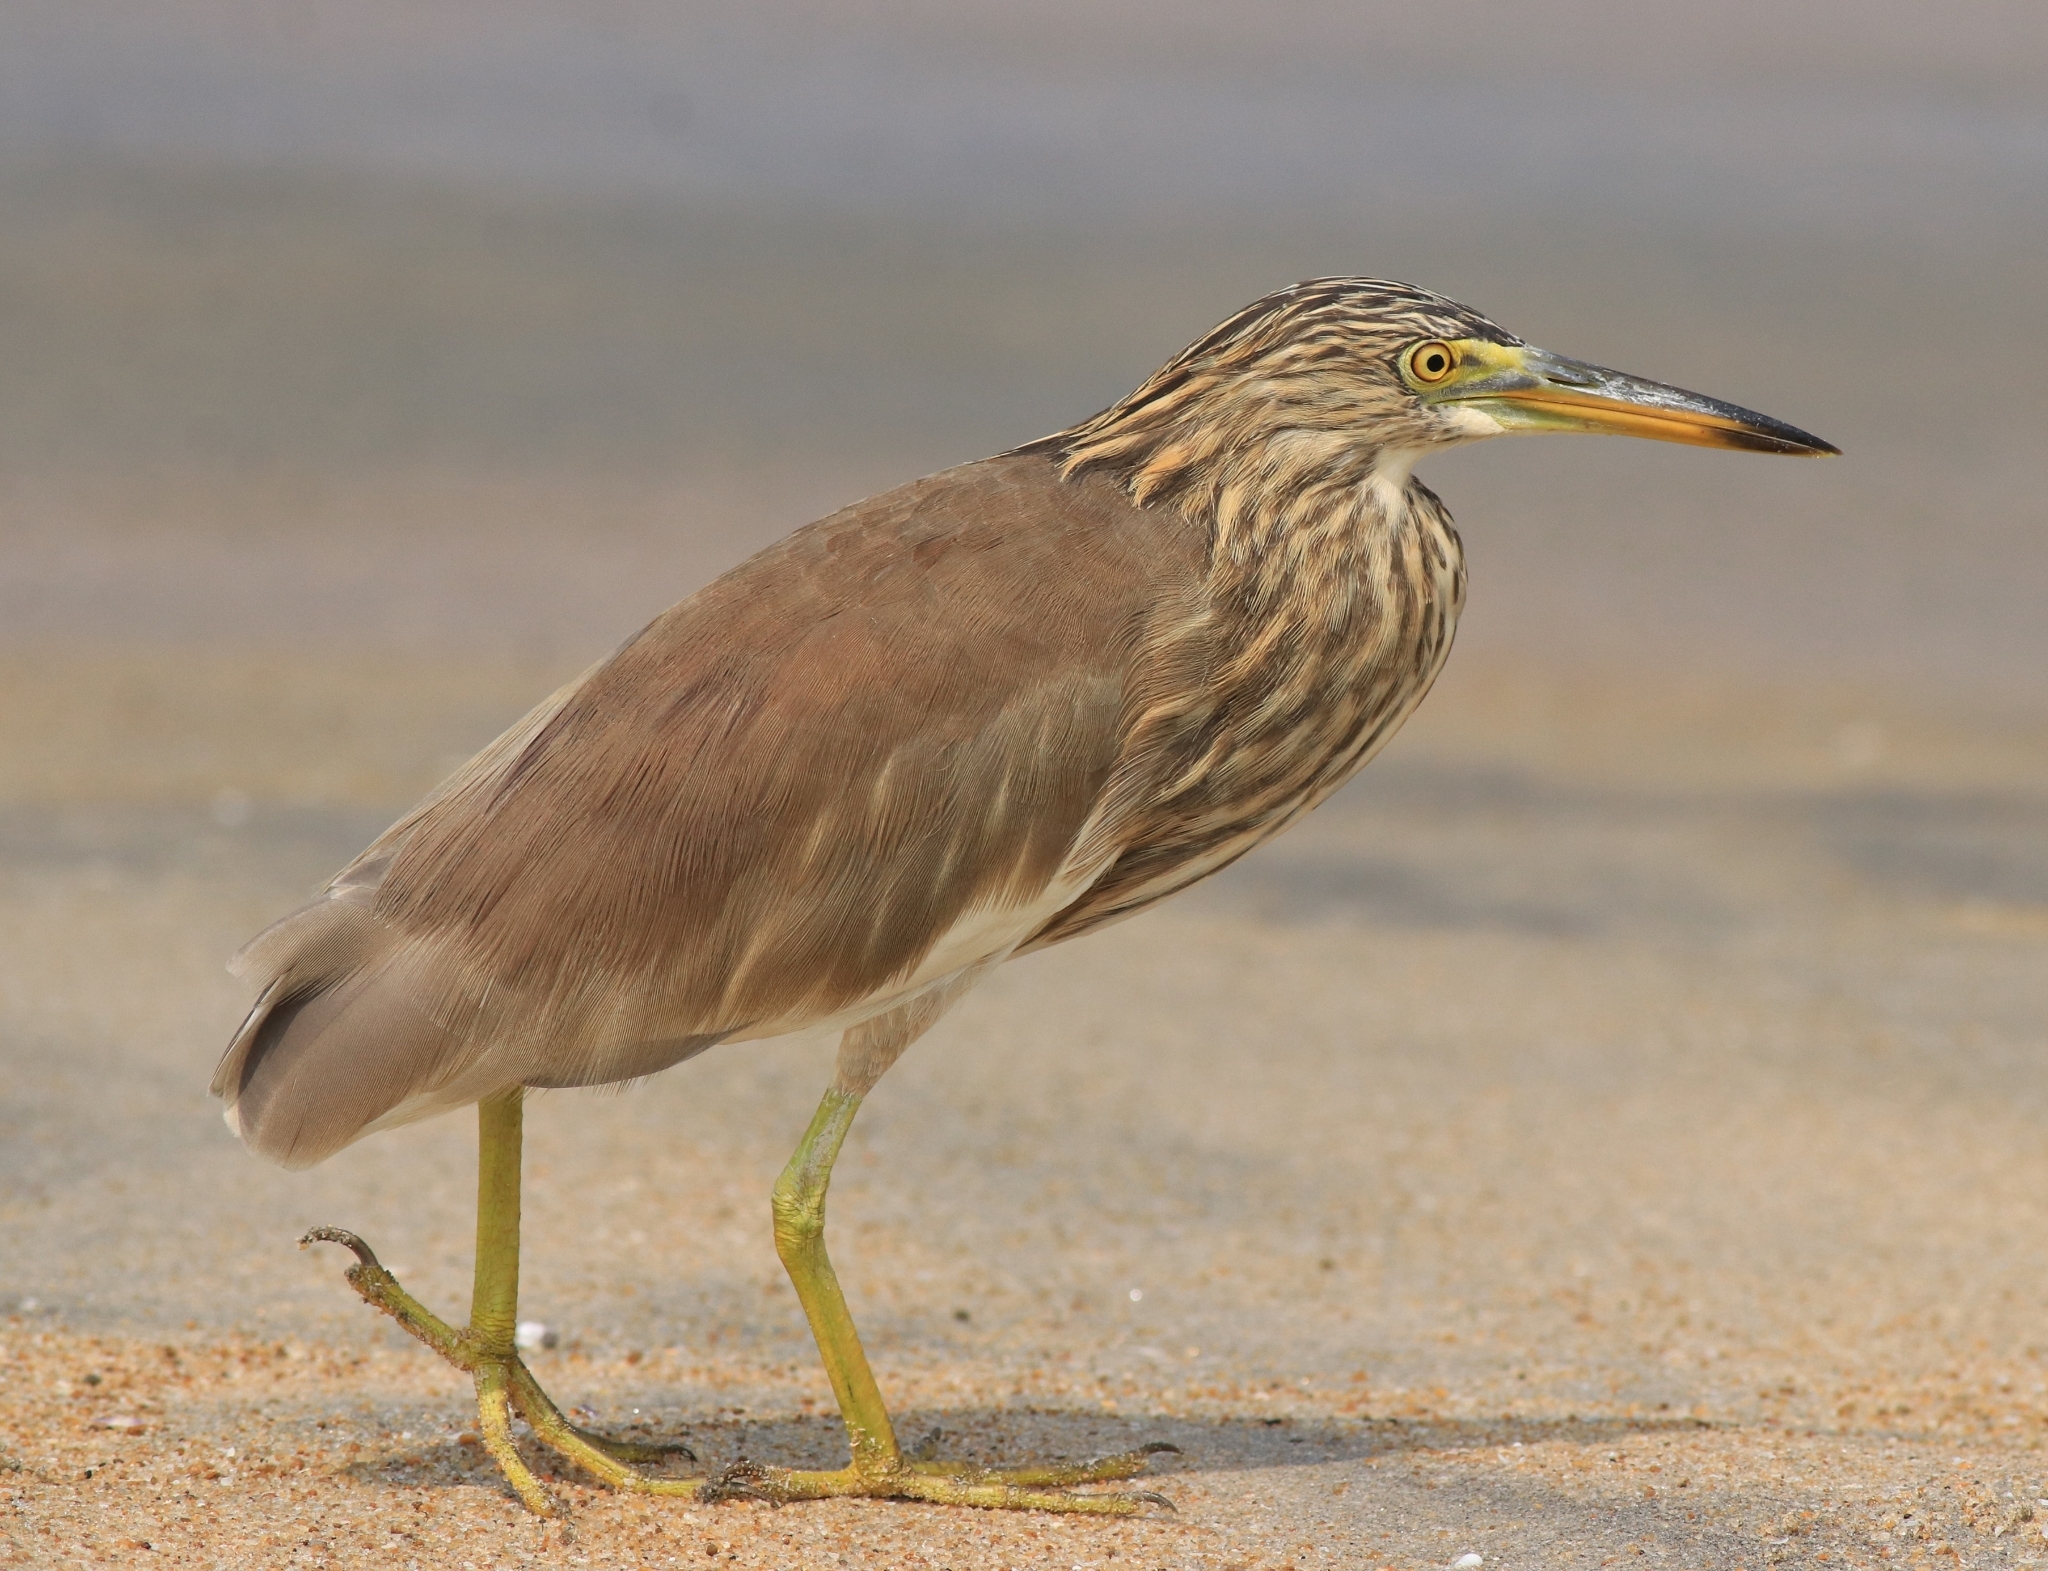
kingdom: Animalia
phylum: Chordata
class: Aves
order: Pelecaniformes
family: Ardeidae
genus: Ardeola
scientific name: Ardeola grayii
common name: Indian pond heron
